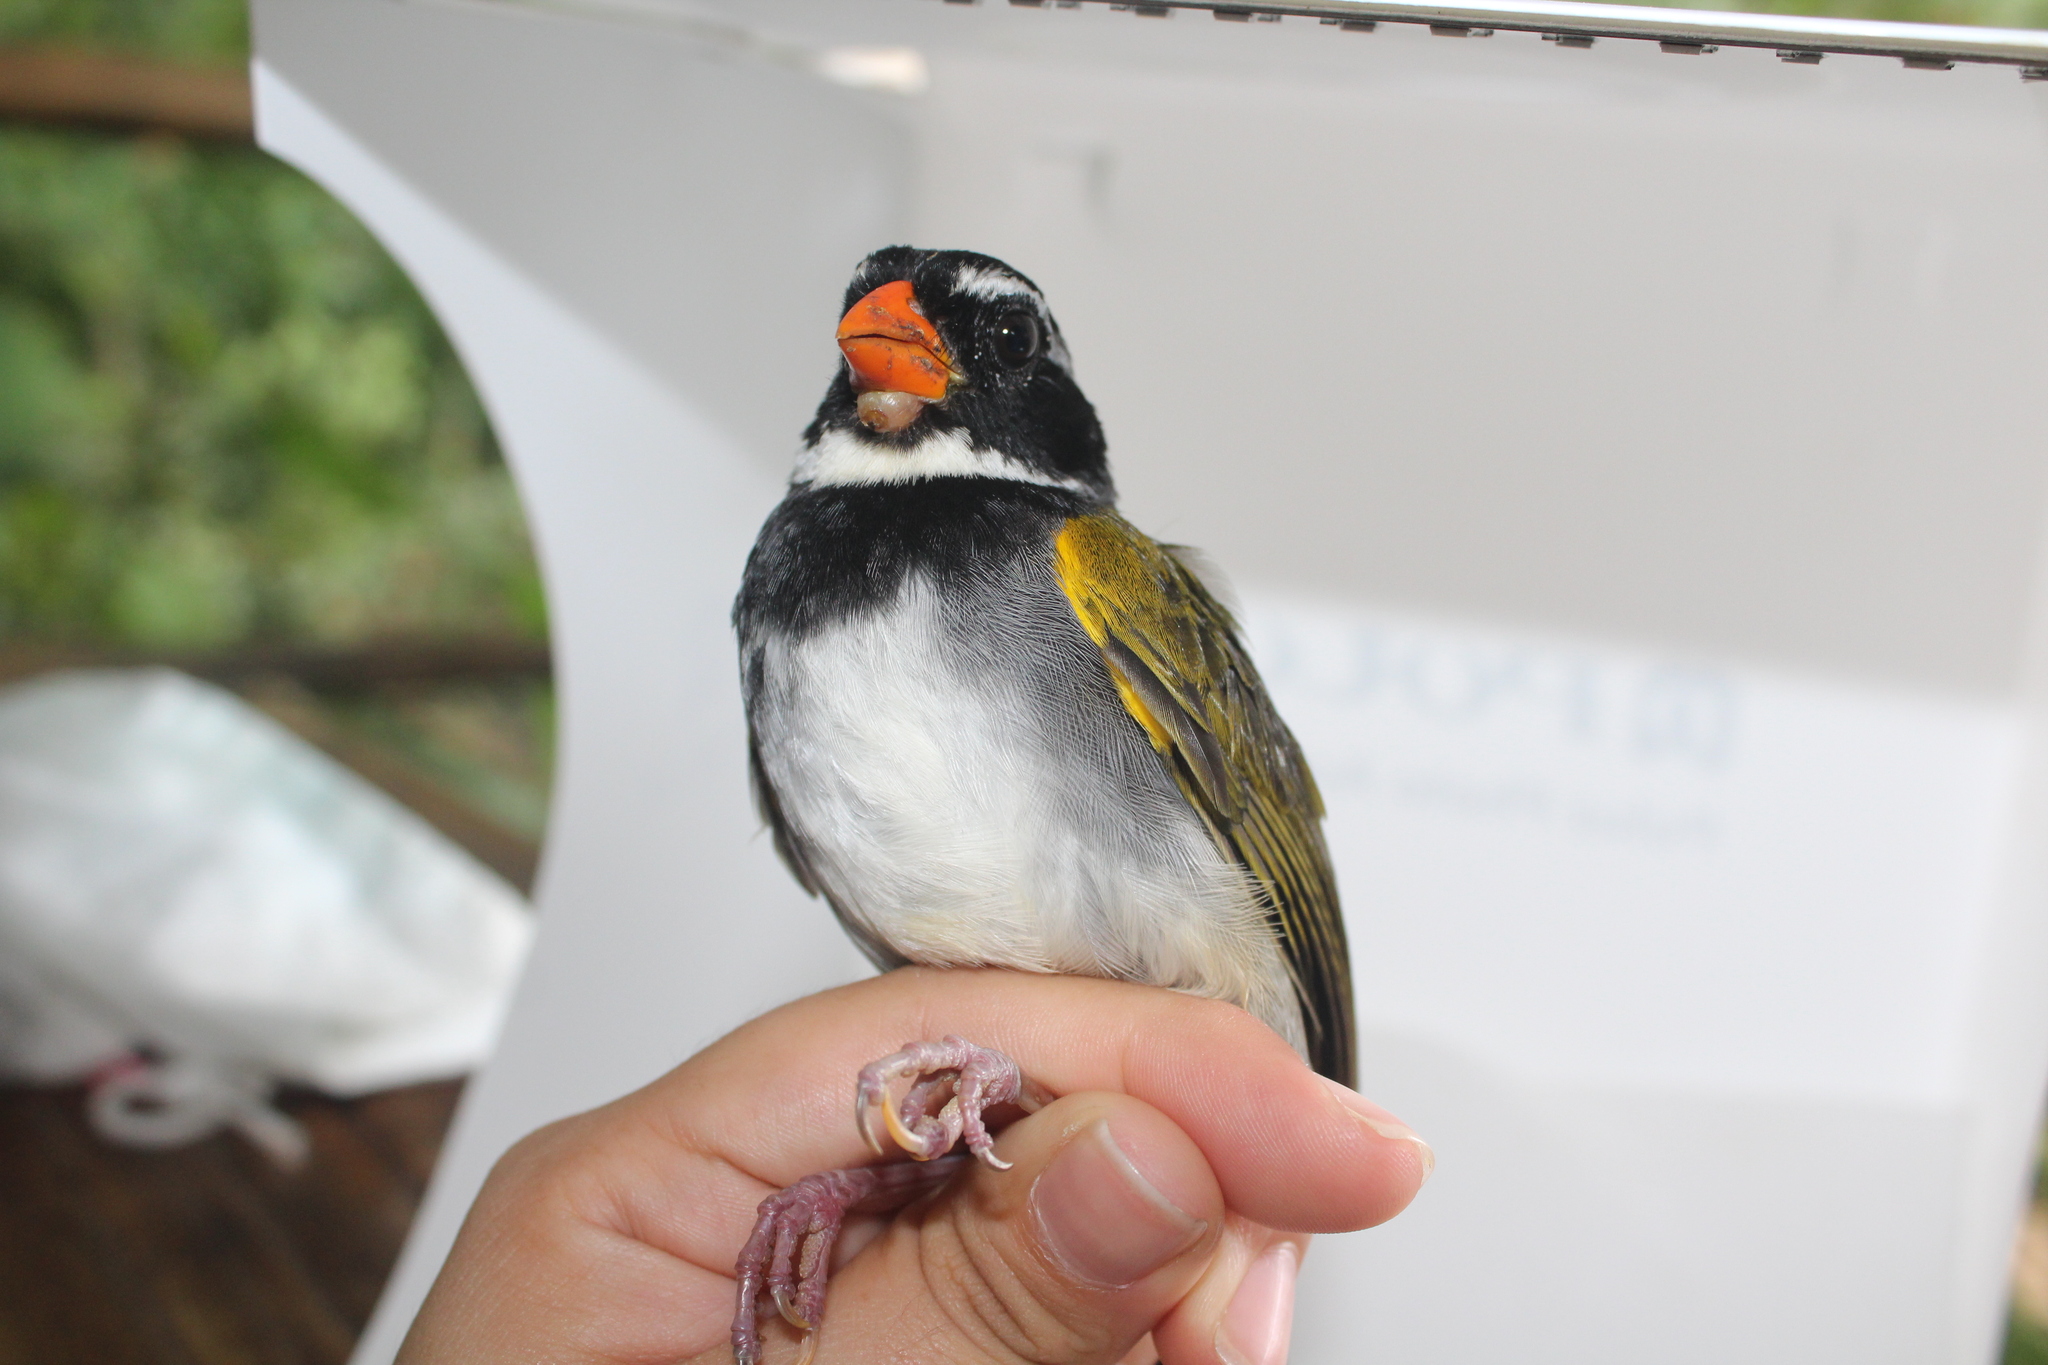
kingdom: Animalia
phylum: Chordata
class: Aves
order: Passeriformes
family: Passerellidae
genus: Arremon
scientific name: Arremon aurantiirostris
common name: Orange-billed sparrow
